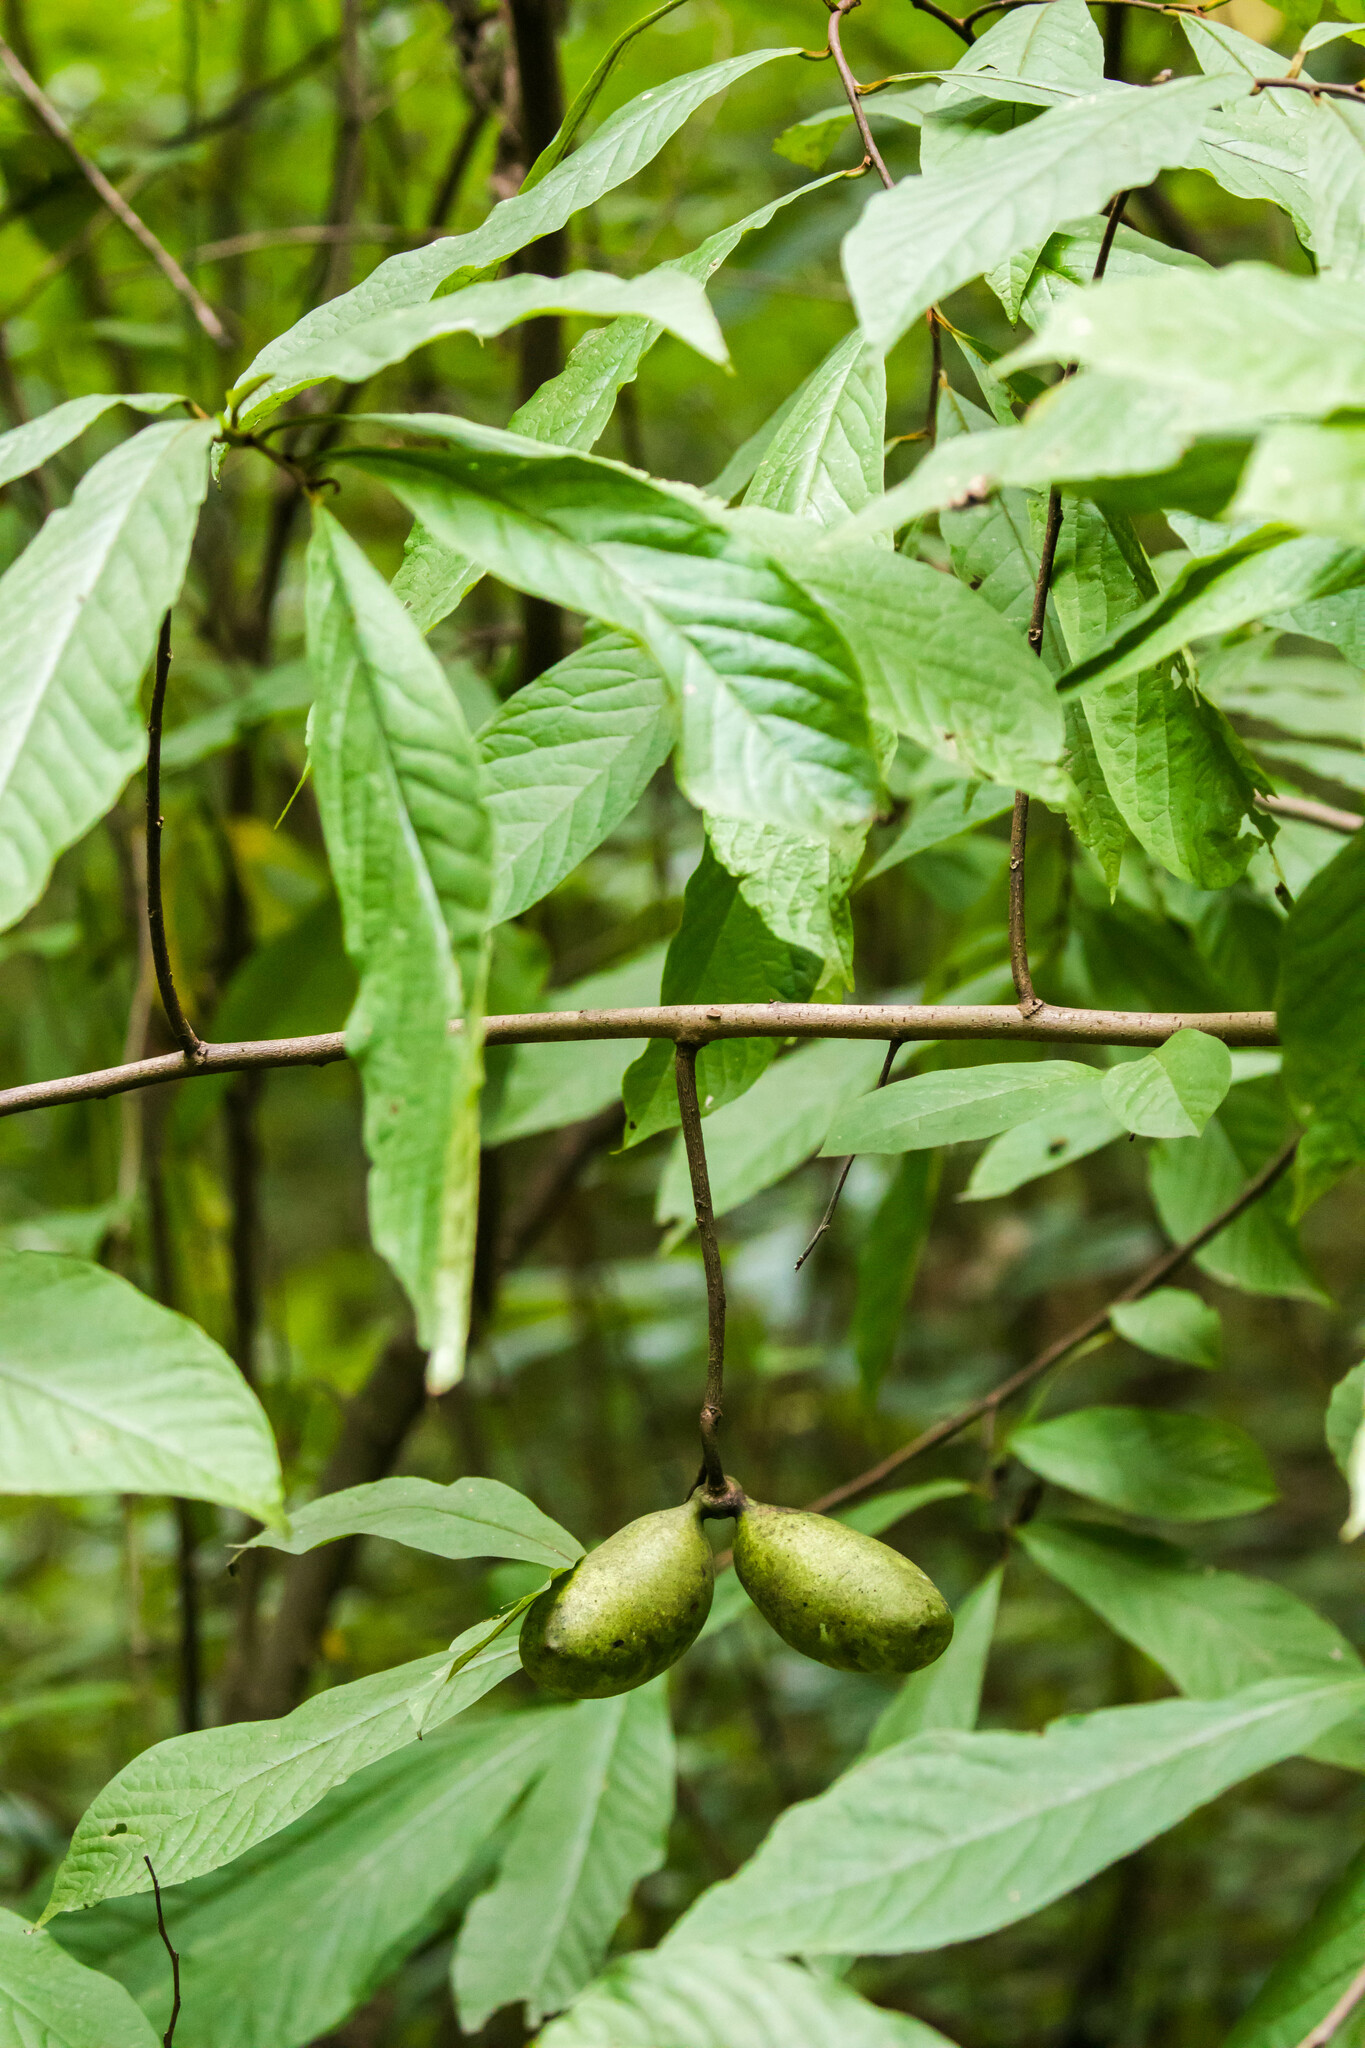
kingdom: Plantae
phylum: Tracheophyta
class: Magnoliopsida
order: Magnoliales
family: Annonaceae
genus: Asimina
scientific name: Asimina triloba
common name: Dog-banana
